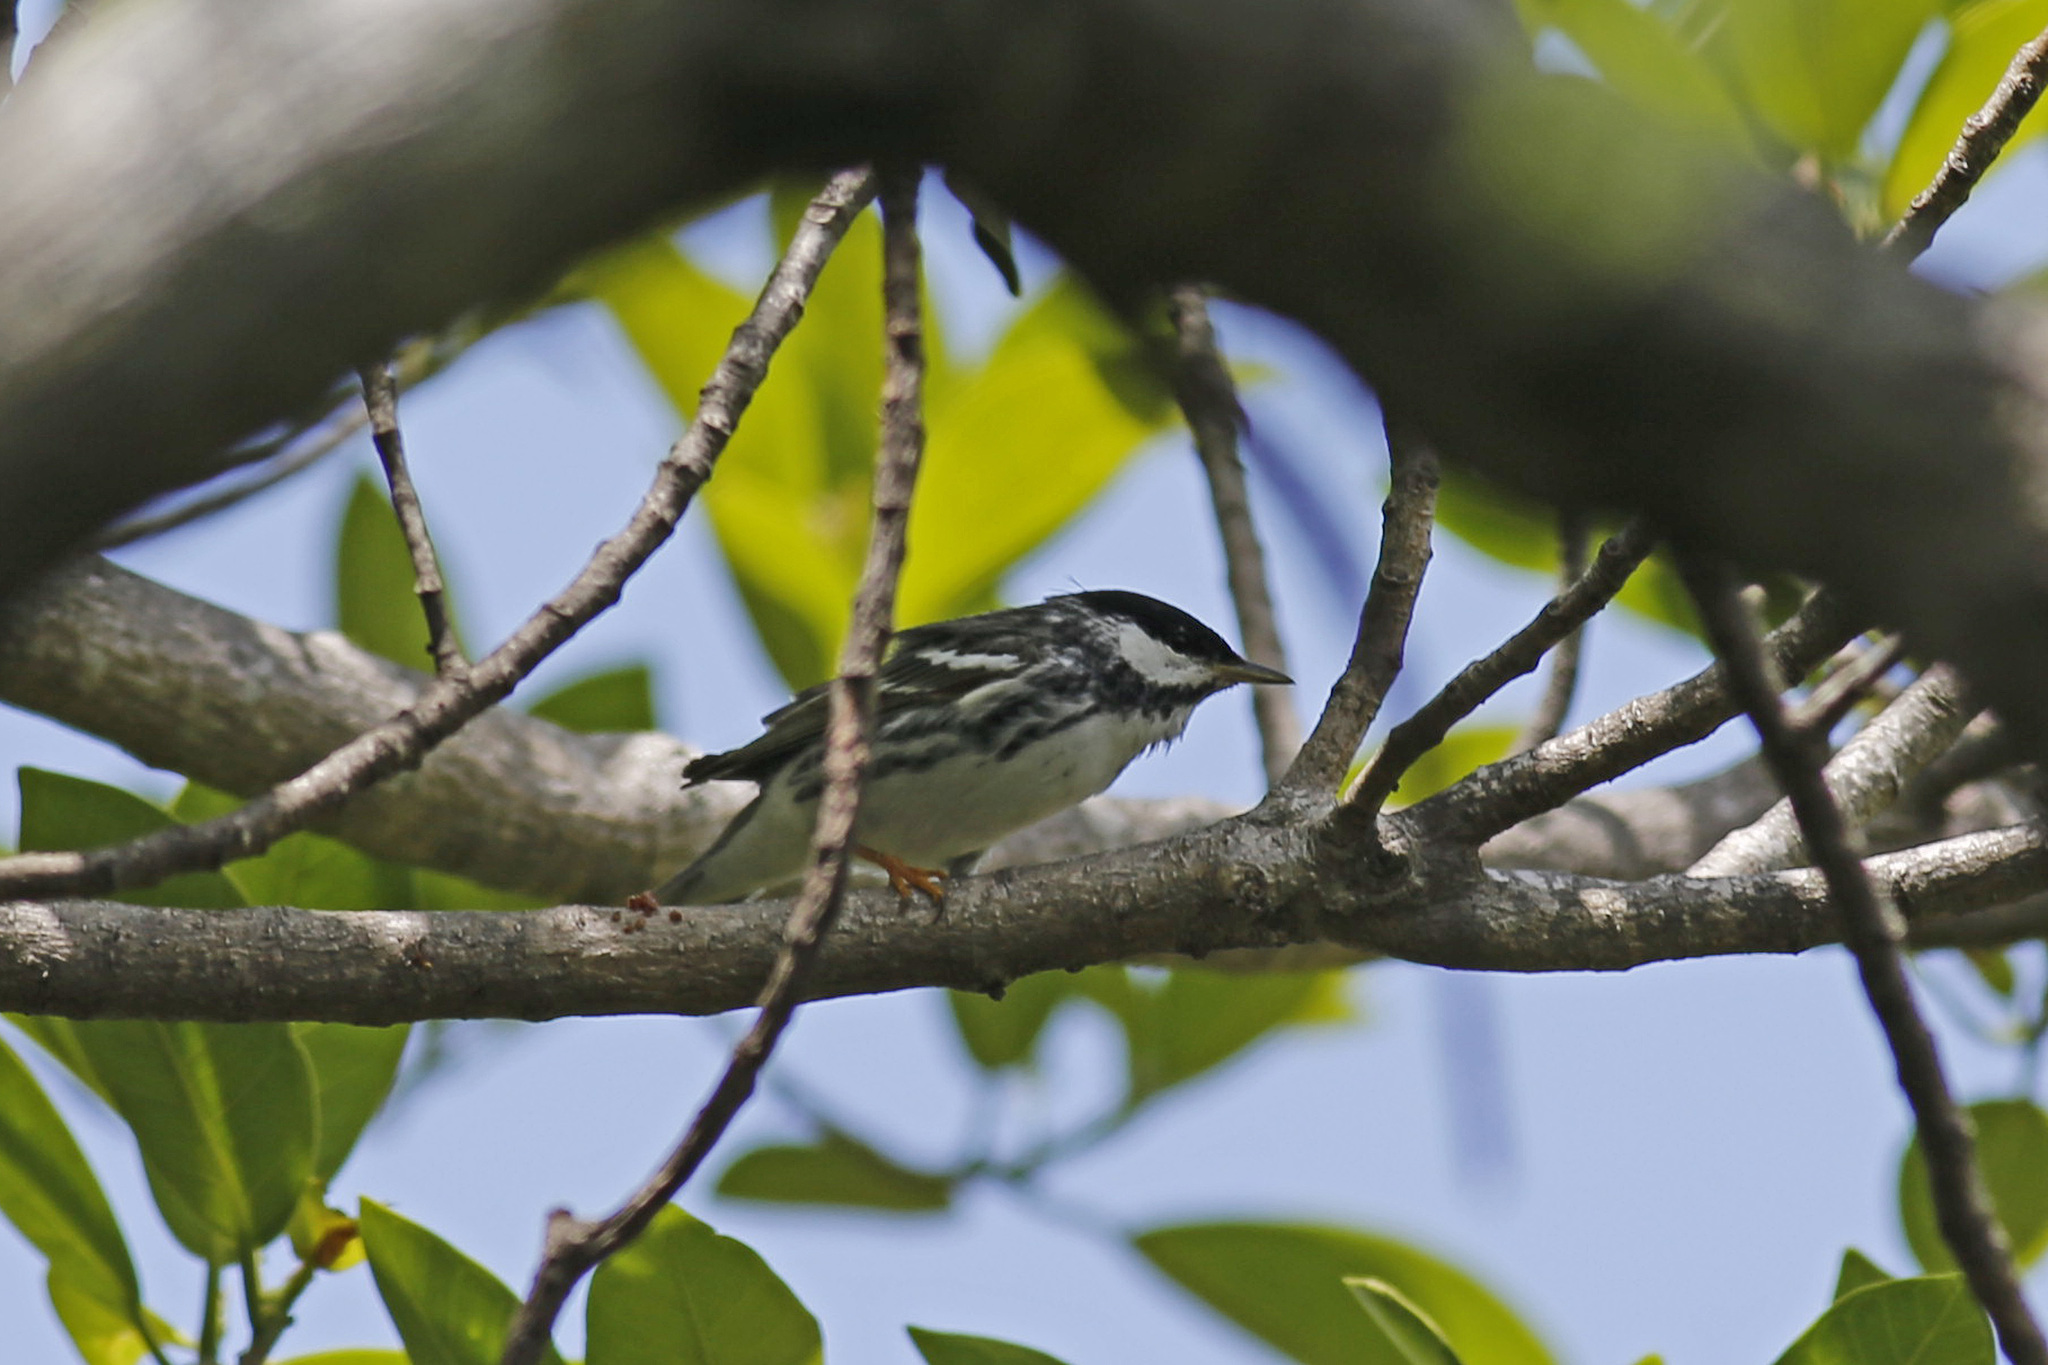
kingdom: Animalia
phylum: Chordata
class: Aves
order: Passeriformes
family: Parulidae
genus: Setophaga
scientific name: Setophaga striata
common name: Blackpoll warbler
